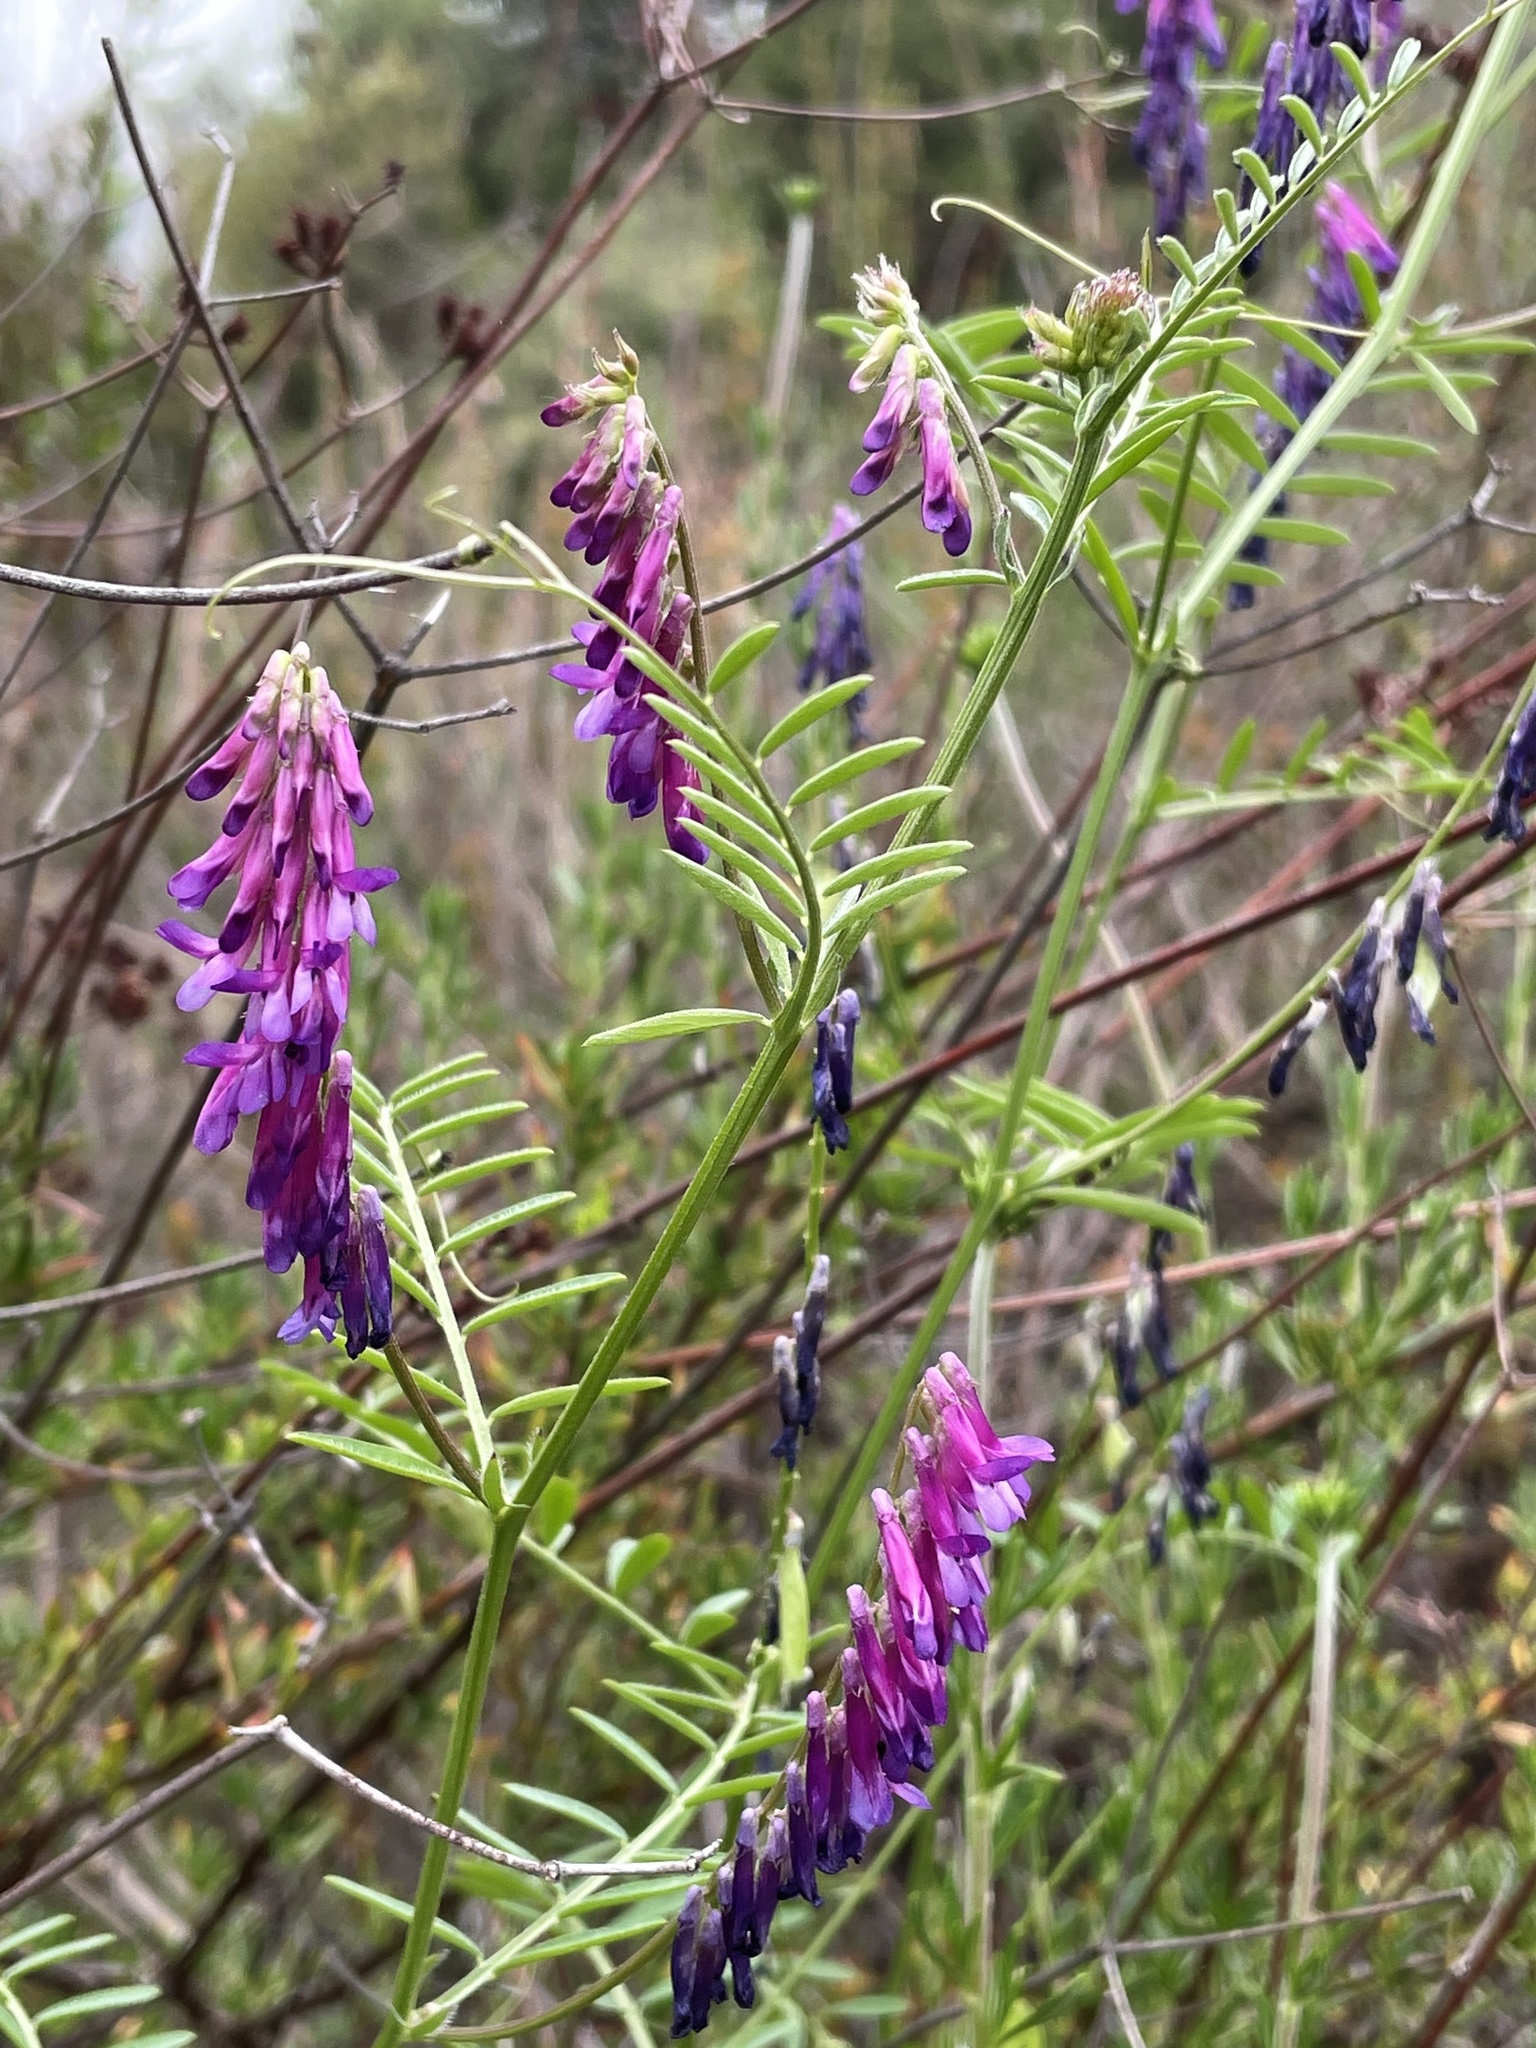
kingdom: Plantae
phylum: Tracheophyta
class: Magnoliopsida
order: Fabales
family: Fabaceae
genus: Vicia
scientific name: Vicia villosa
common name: Fodder vetch
